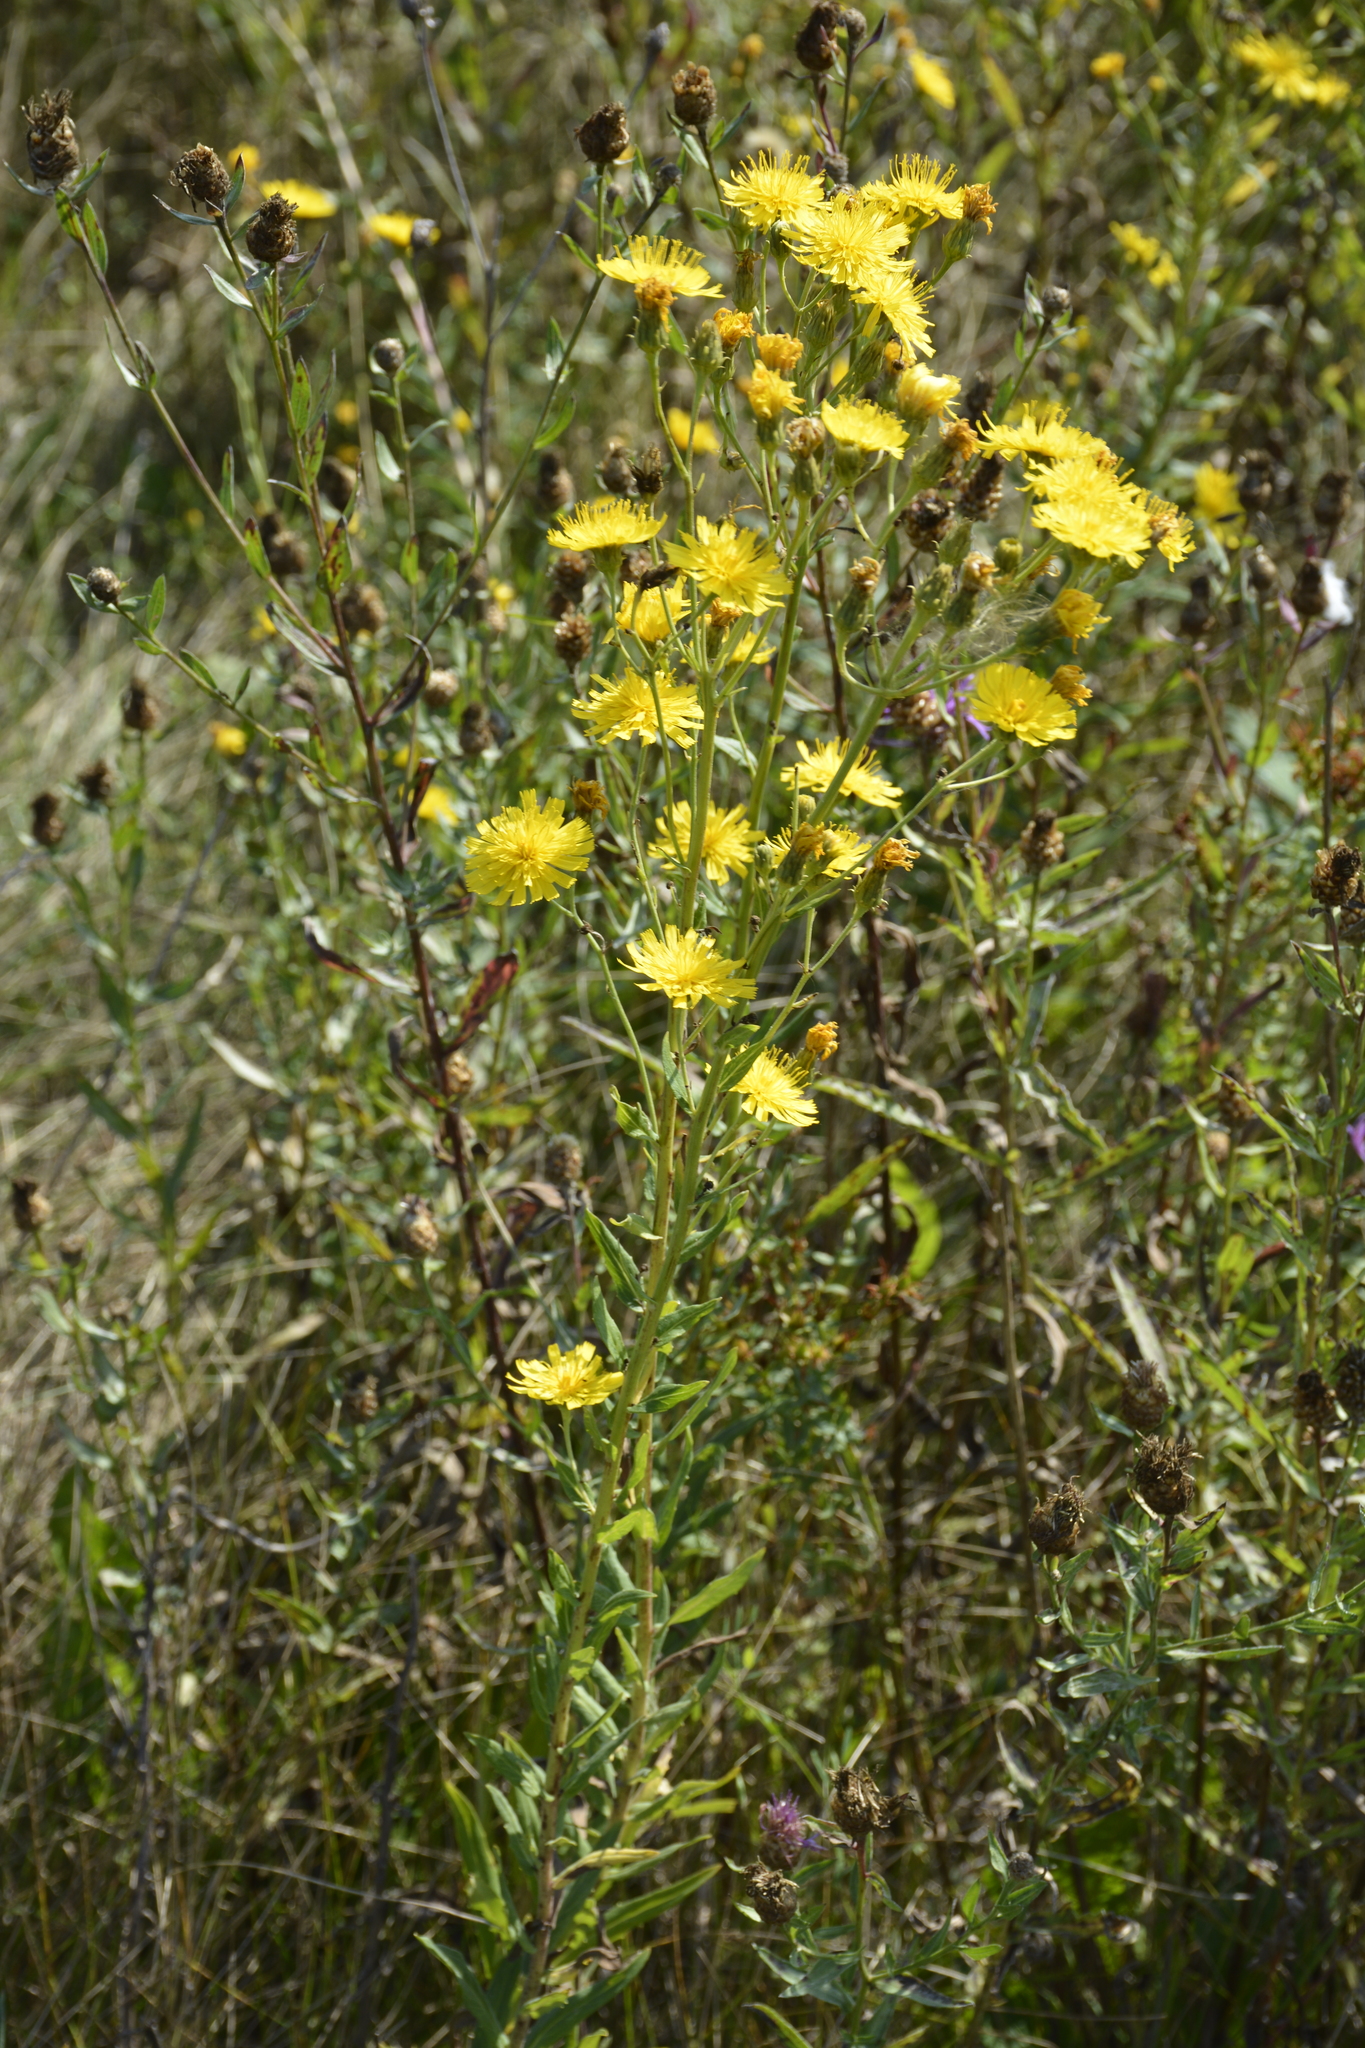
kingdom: Plantae
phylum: Tracheophyta
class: Magnoliopsida
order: Asterales
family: Asteraceae
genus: Hieracium
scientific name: Hieracium umbellatum
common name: Northern hawkweed
